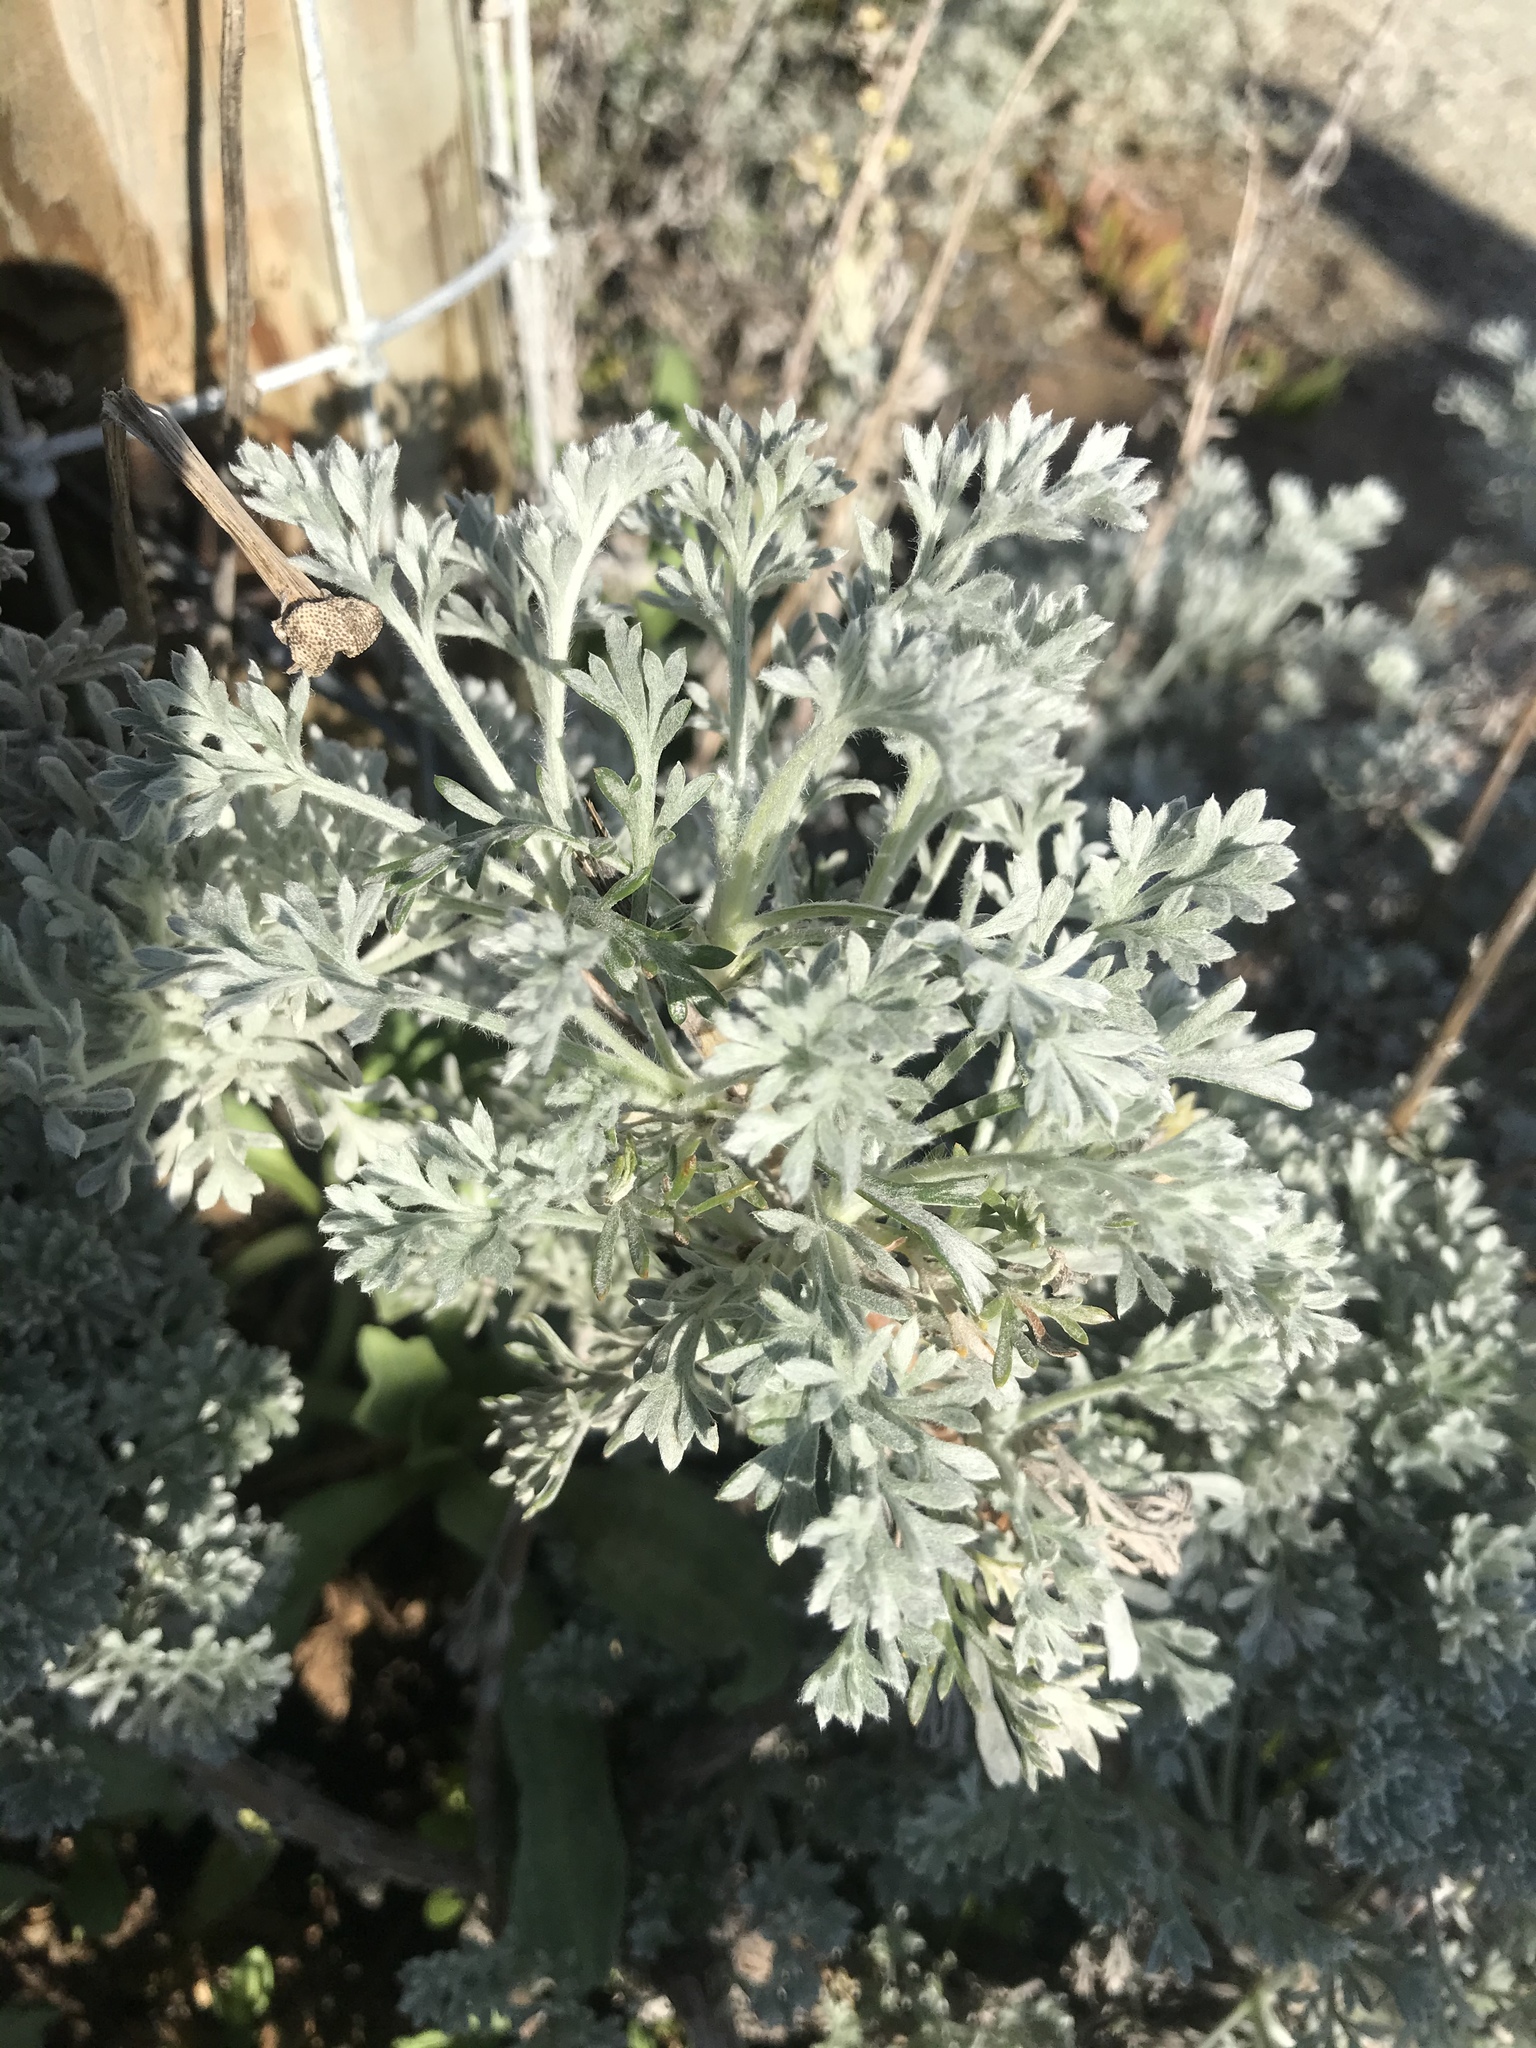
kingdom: Plantae
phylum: Tracheophyta
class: Magnoliopsida
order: Asterales
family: Asteraceae
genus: Artemisia
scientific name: Artemisia pycnocephala
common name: Coastal sagewort
